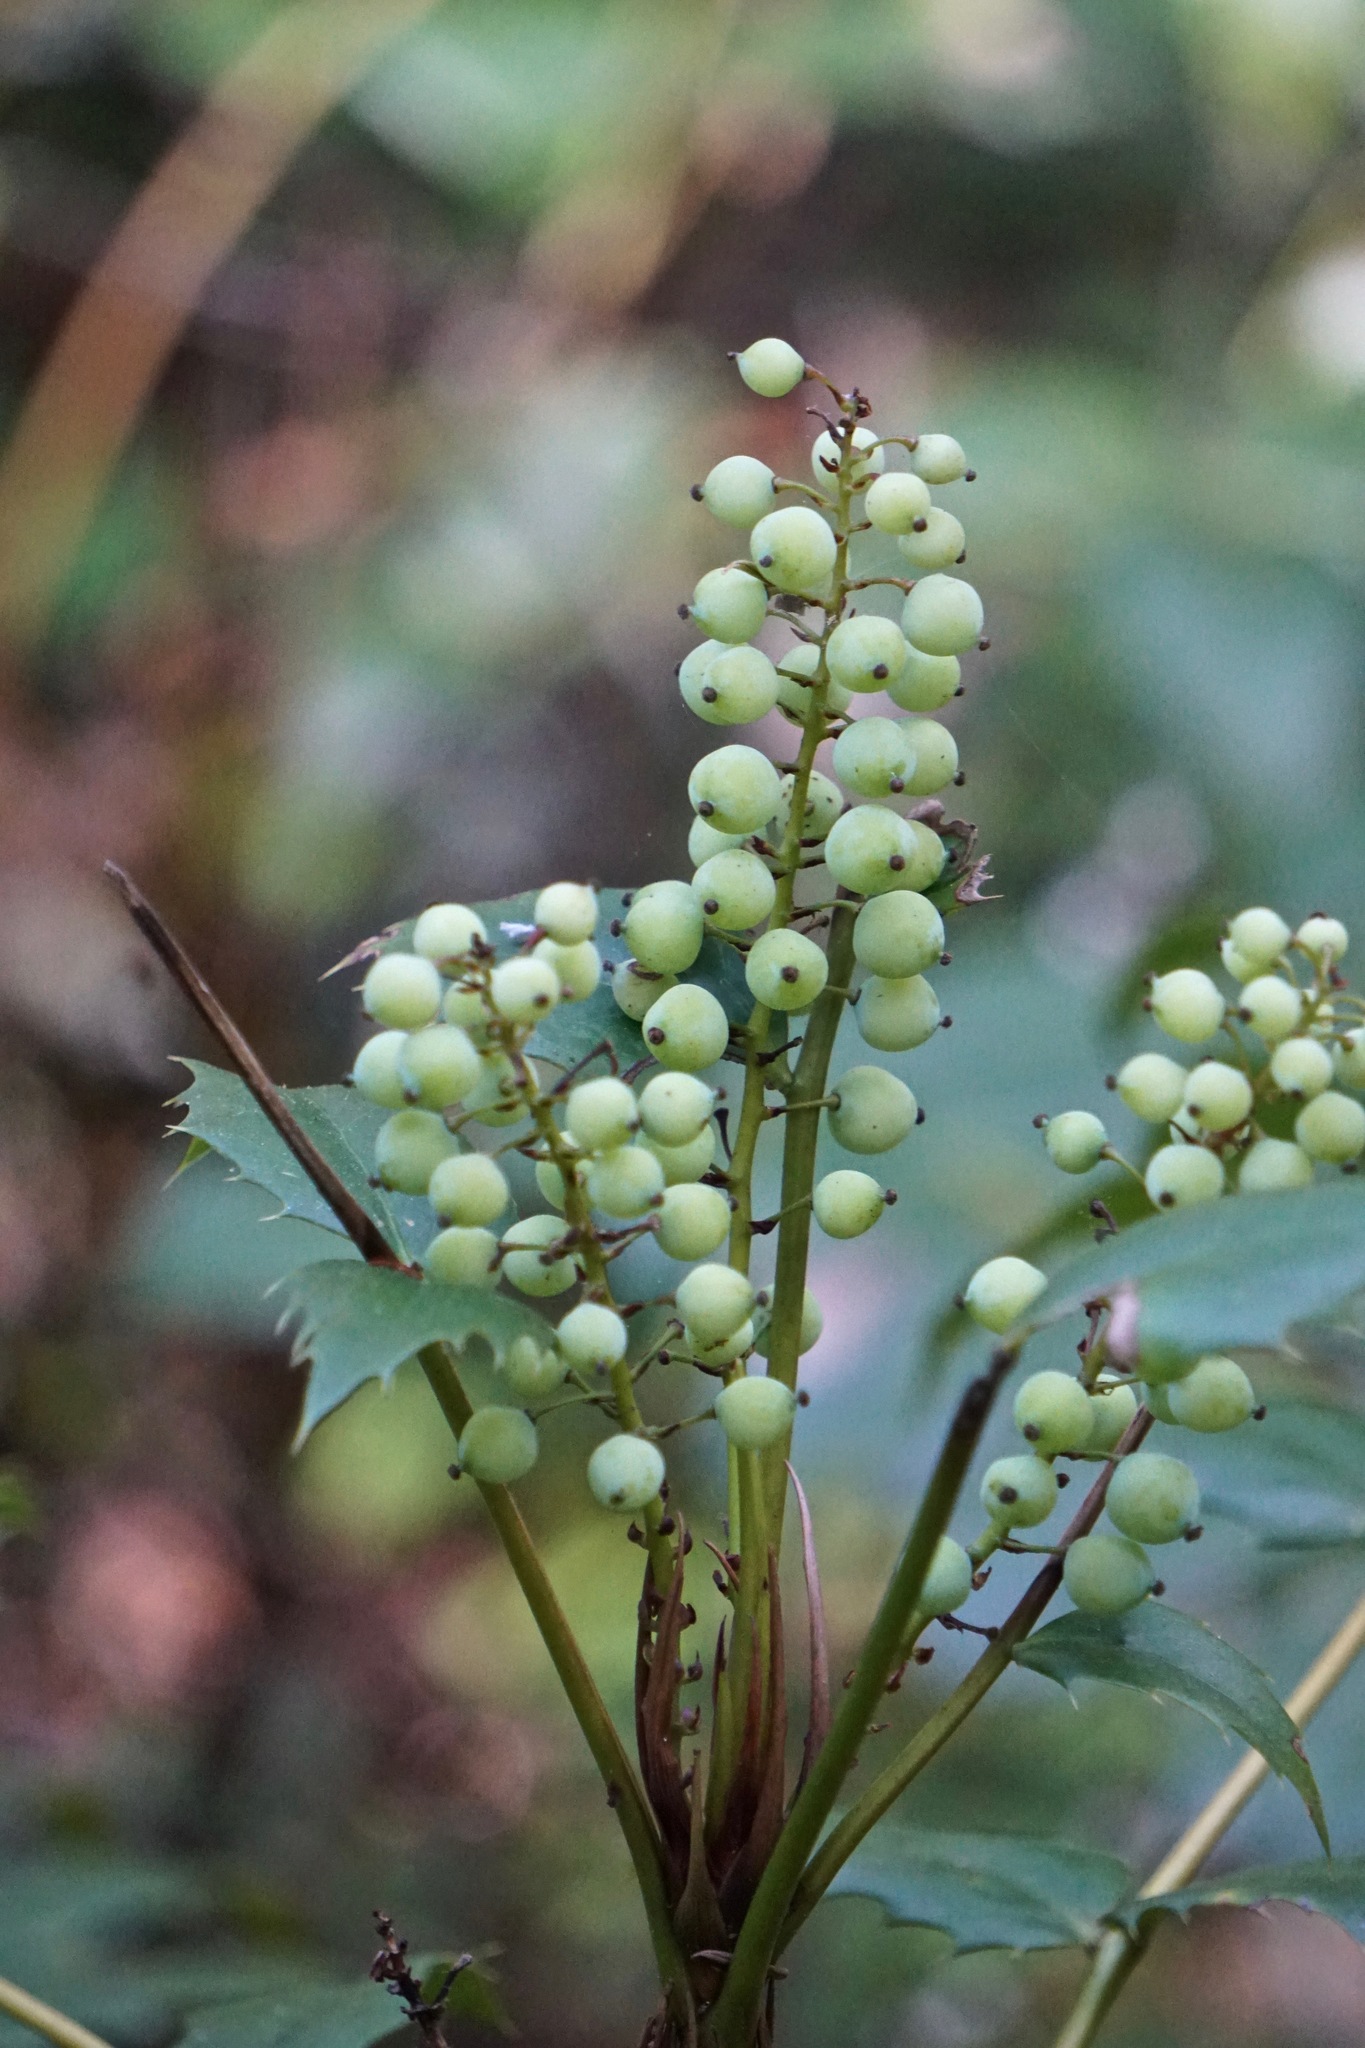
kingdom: Plantae
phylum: Tracheophyta
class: Magnoliopsida
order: Ranunculales
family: Berberidaceae
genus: Mahonia
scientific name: Mahonia nervosa
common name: Cascade oregon-grape
